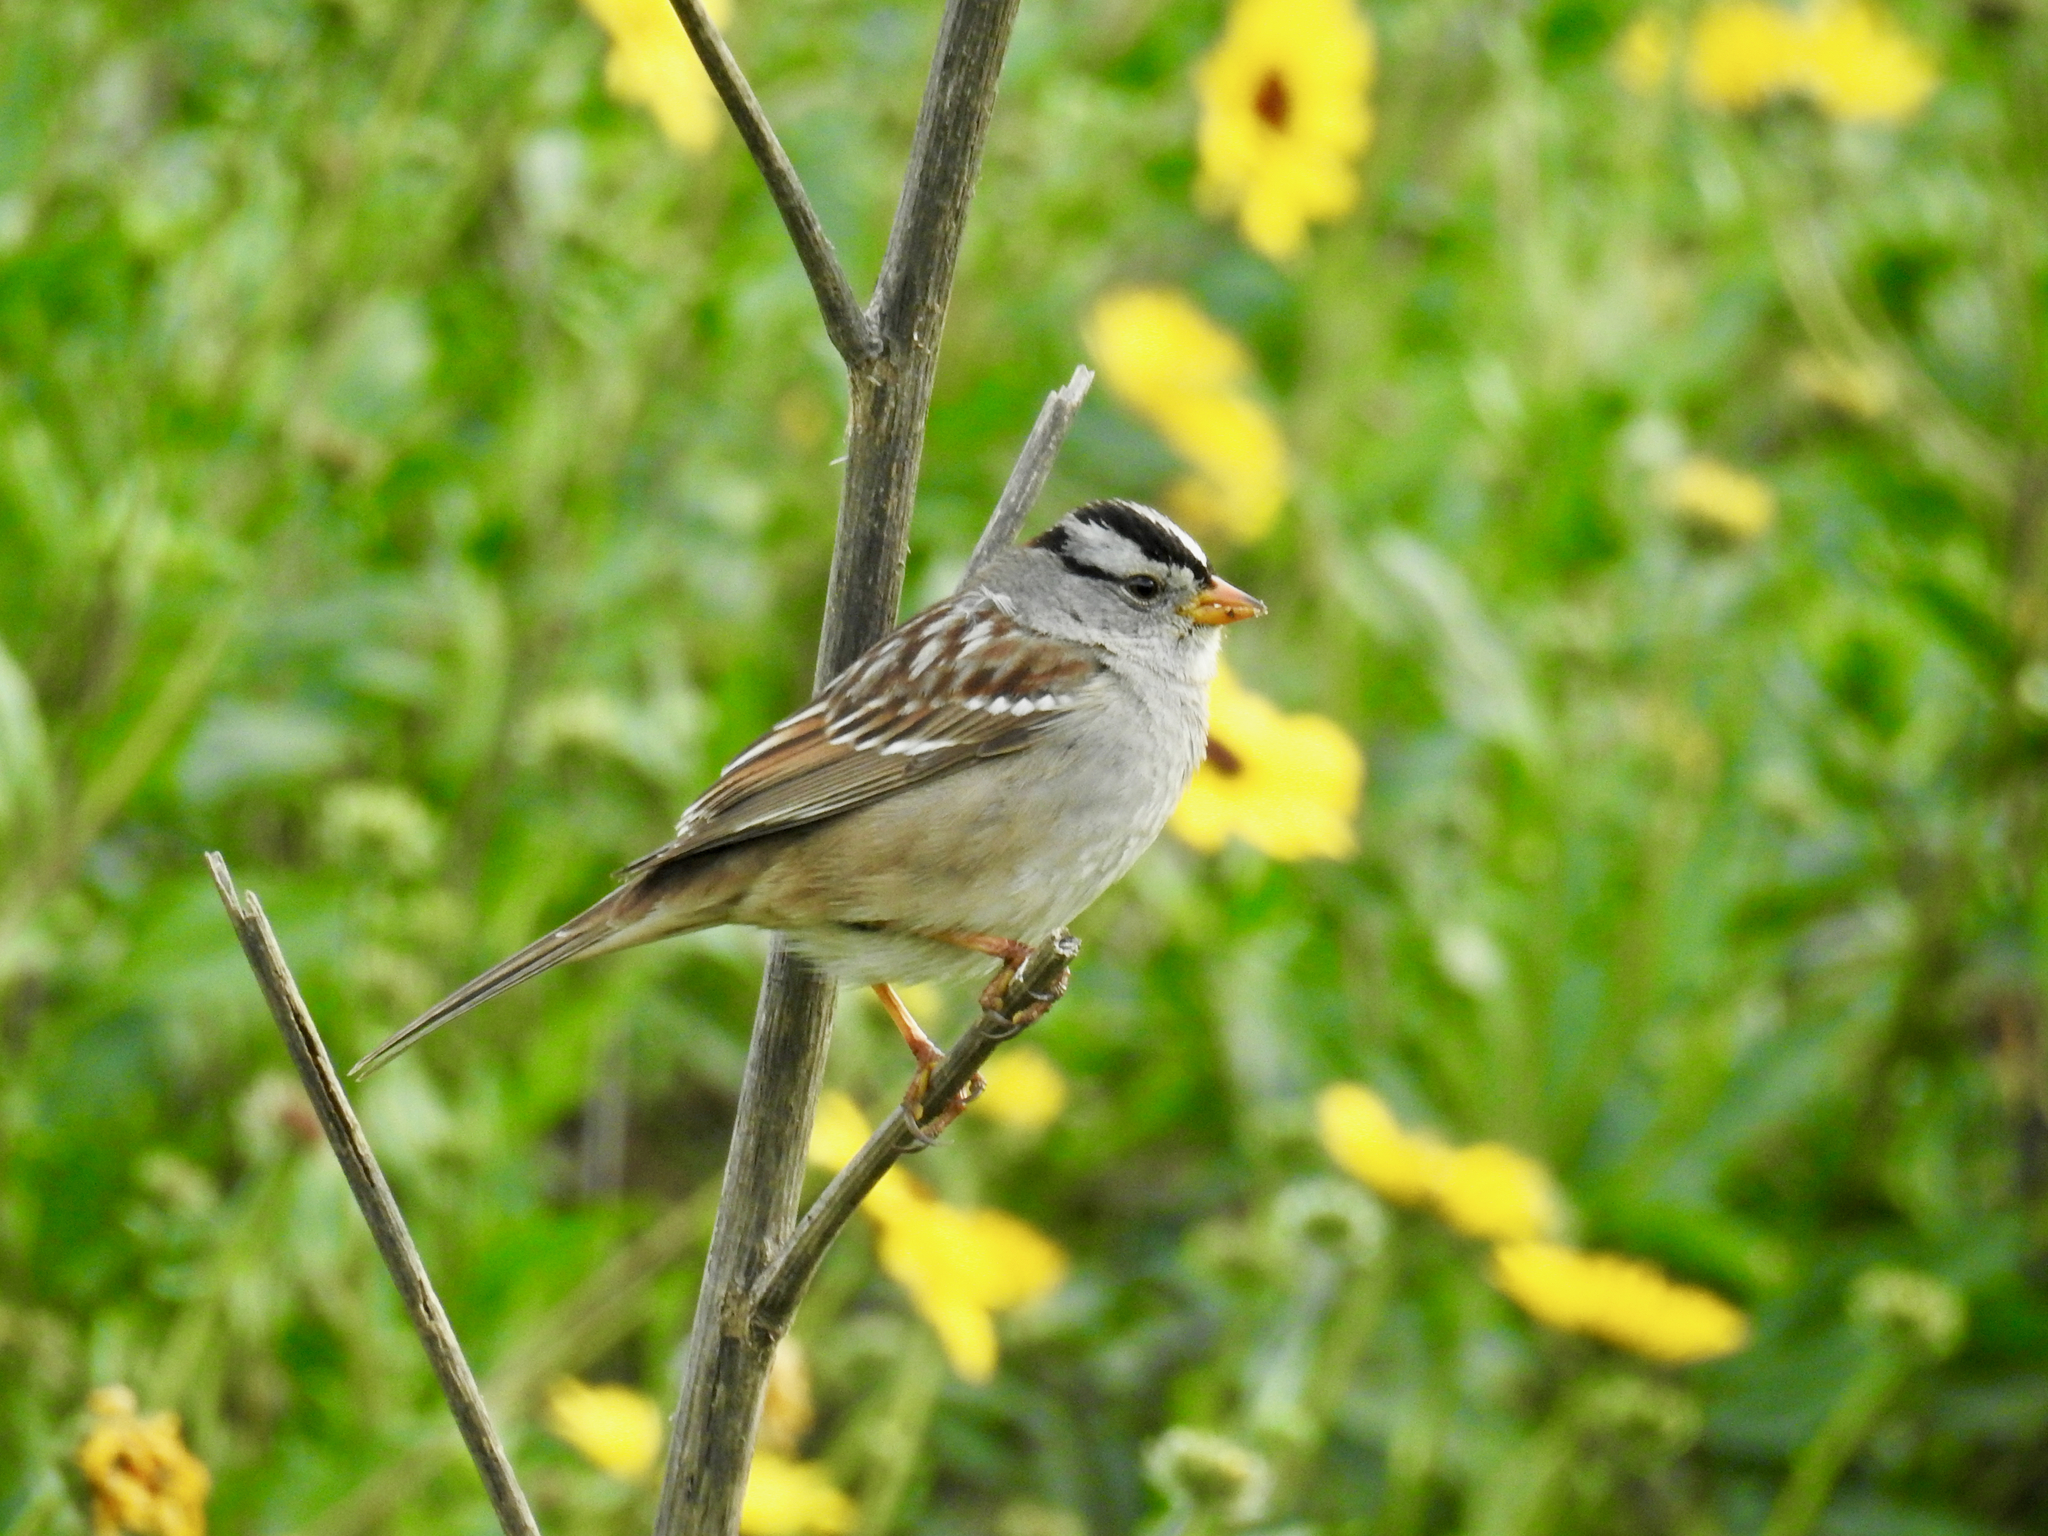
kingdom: Animalia
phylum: Chordata
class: Aves
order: Passeriformes
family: Passerellidae
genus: Zonotrichia
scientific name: Zonotrichia leucophrys
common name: White-crowned sparrow
